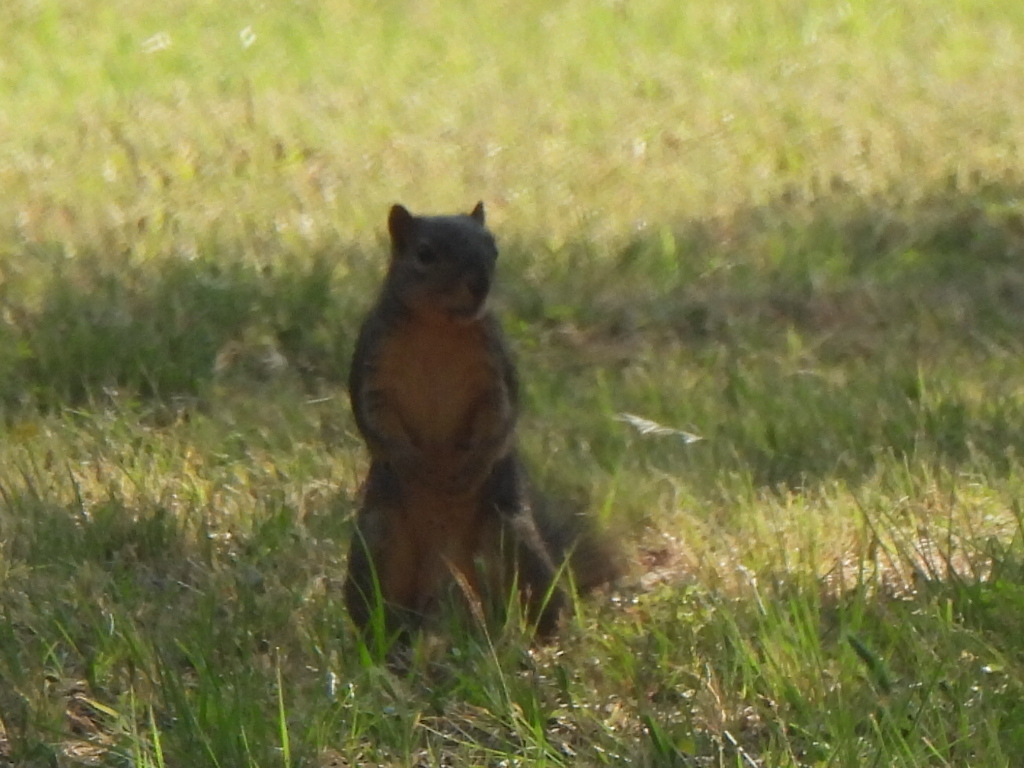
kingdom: Animalia
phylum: Chordata
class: Mammalia
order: Rodentia
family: Sciuridae
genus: Sciurus
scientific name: Sciurus niger
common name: Fox squirrel
